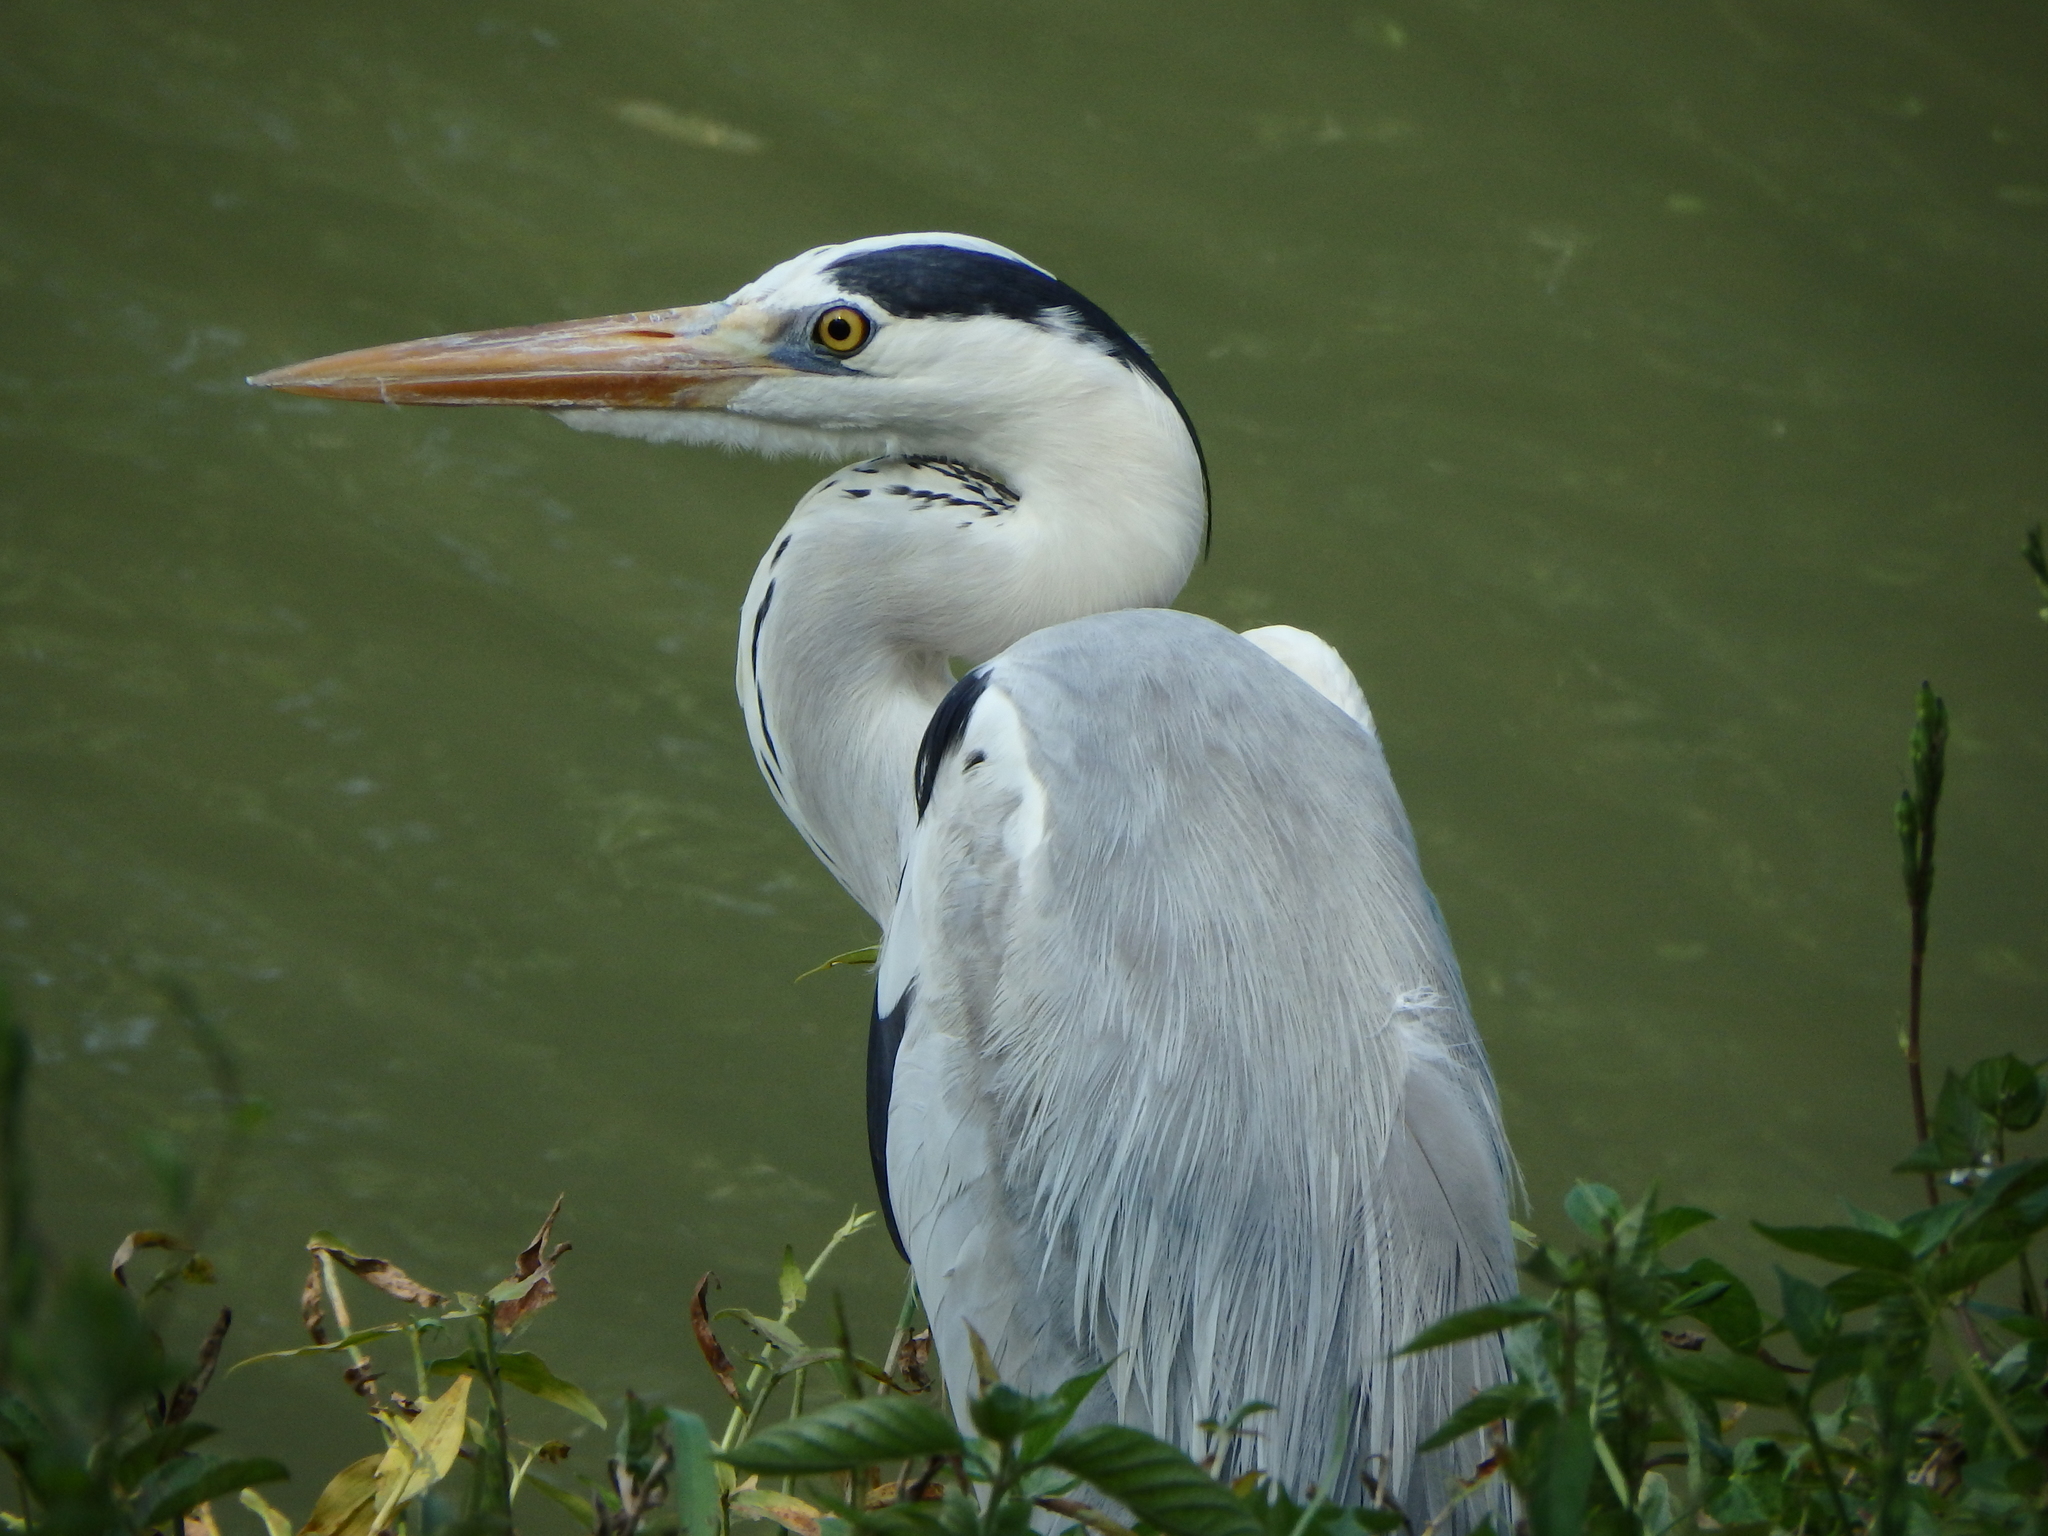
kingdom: Animalia
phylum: Chordata
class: Aves
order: Pelecaniformes
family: Ardeidae
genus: Ardea
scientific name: Ardea cinerea
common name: Grey heron
